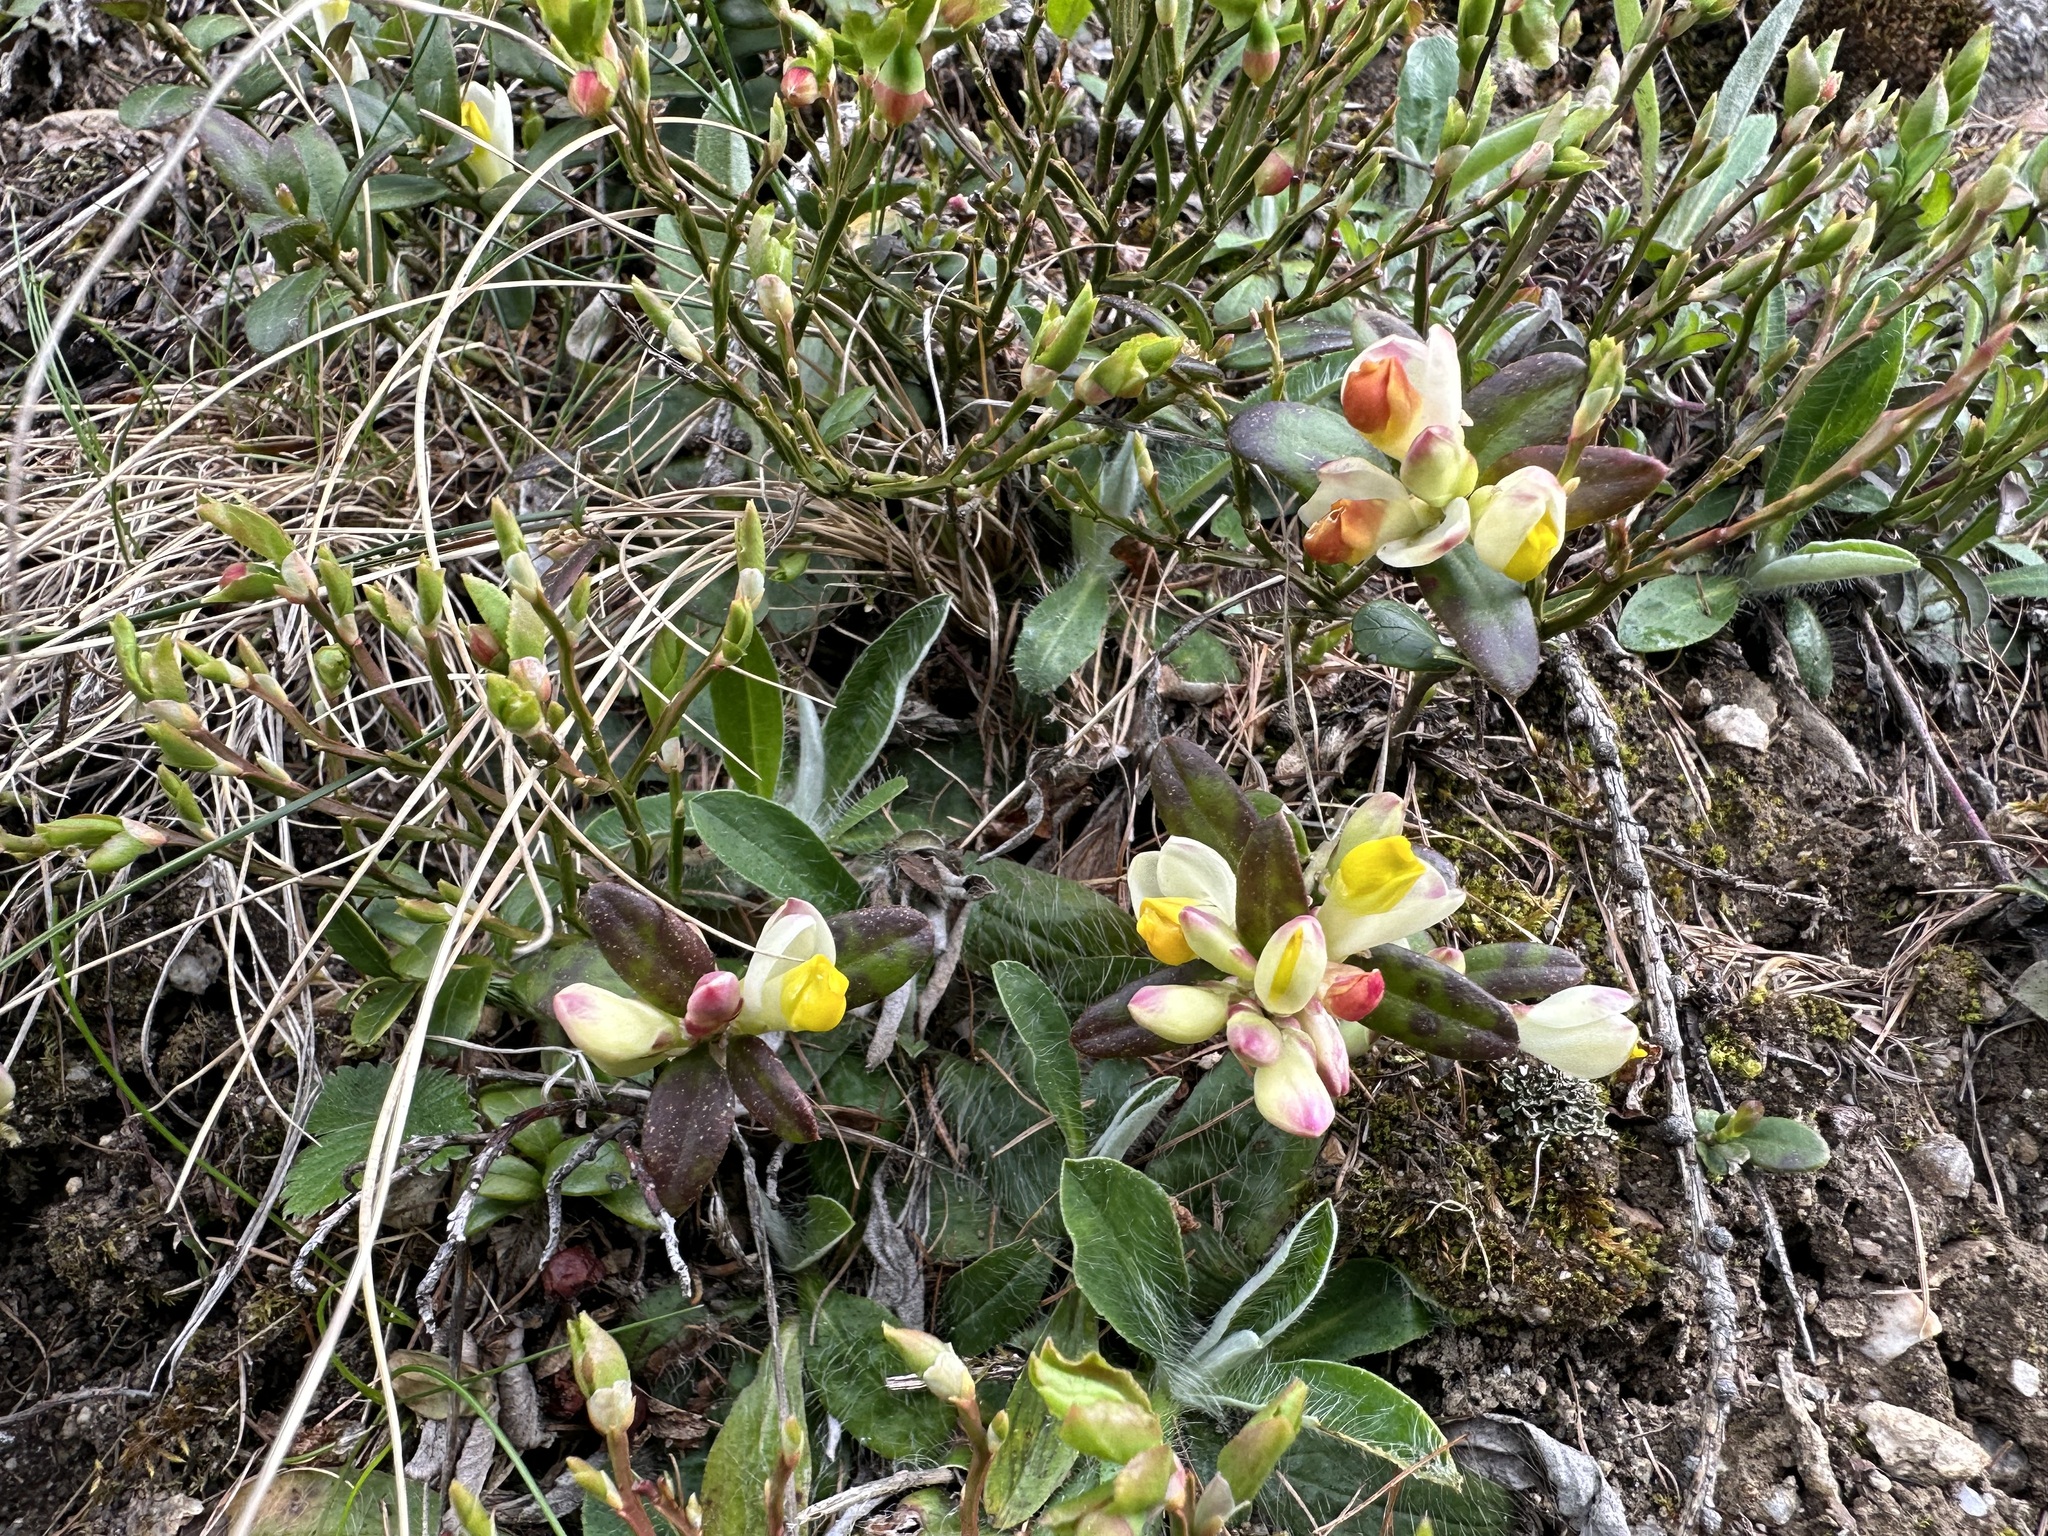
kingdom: Plantae
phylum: Tracheophyta
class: Magnoliopsida
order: Fabales
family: Polygalaceae
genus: Polygaloides
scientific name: Polygaloides chamaebuxus
